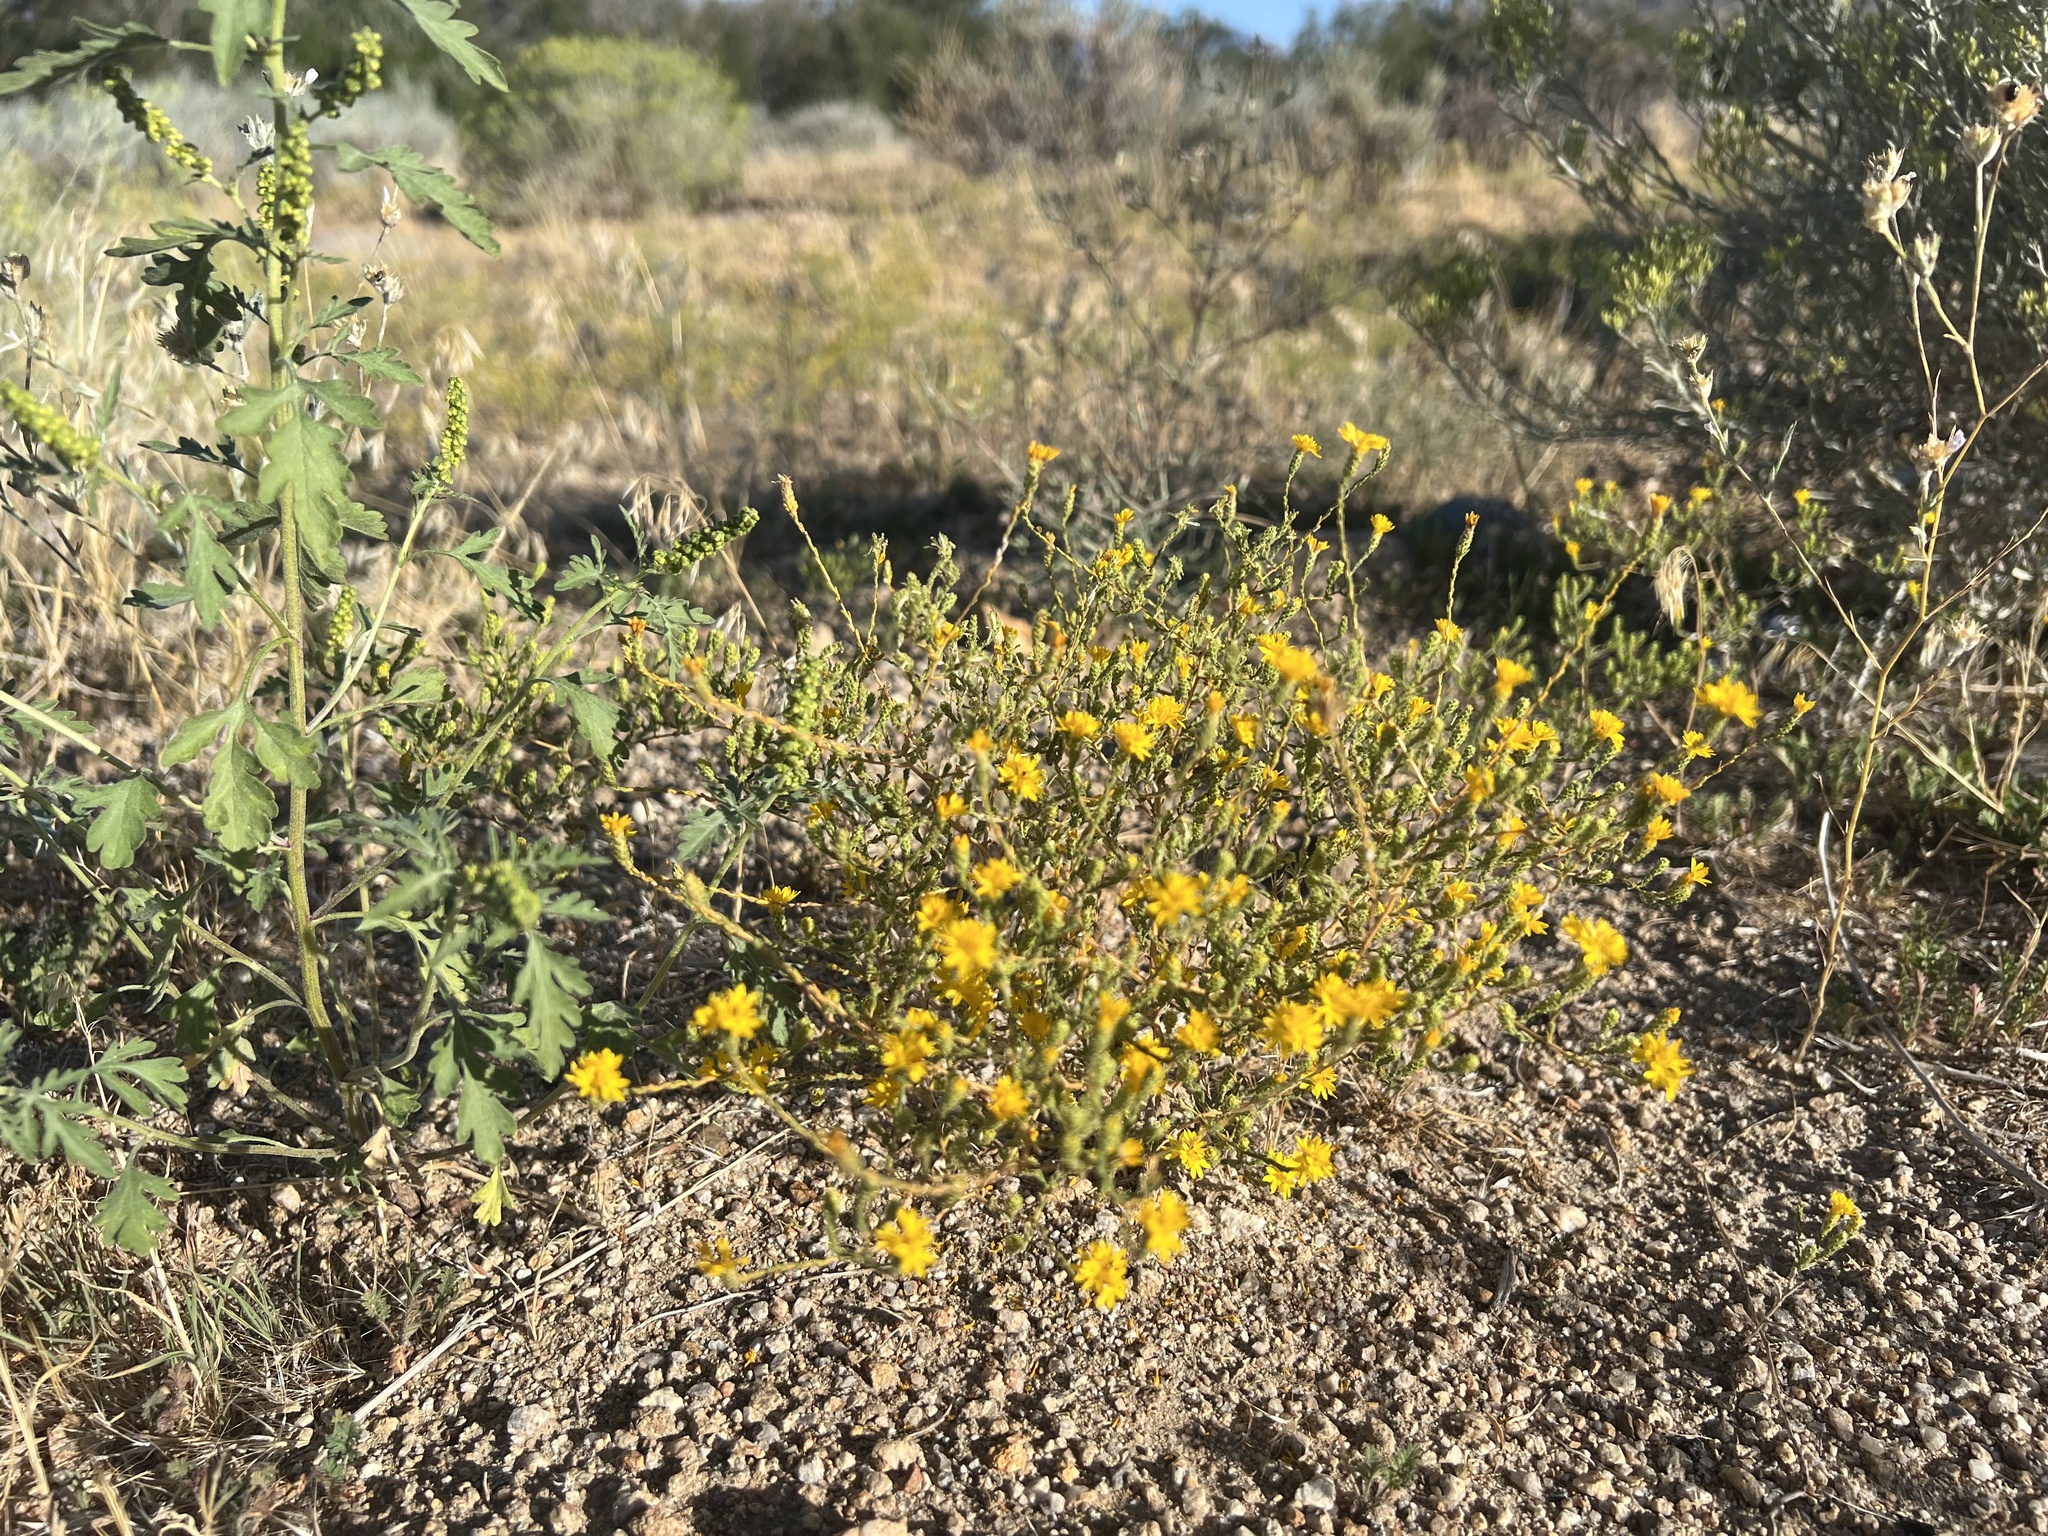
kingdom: Plantae
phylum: Tracheophyta
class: Magnoliopsida
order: Asterales
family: Asteraceae
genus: Lessingia
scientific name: Lessingia glandulifera
